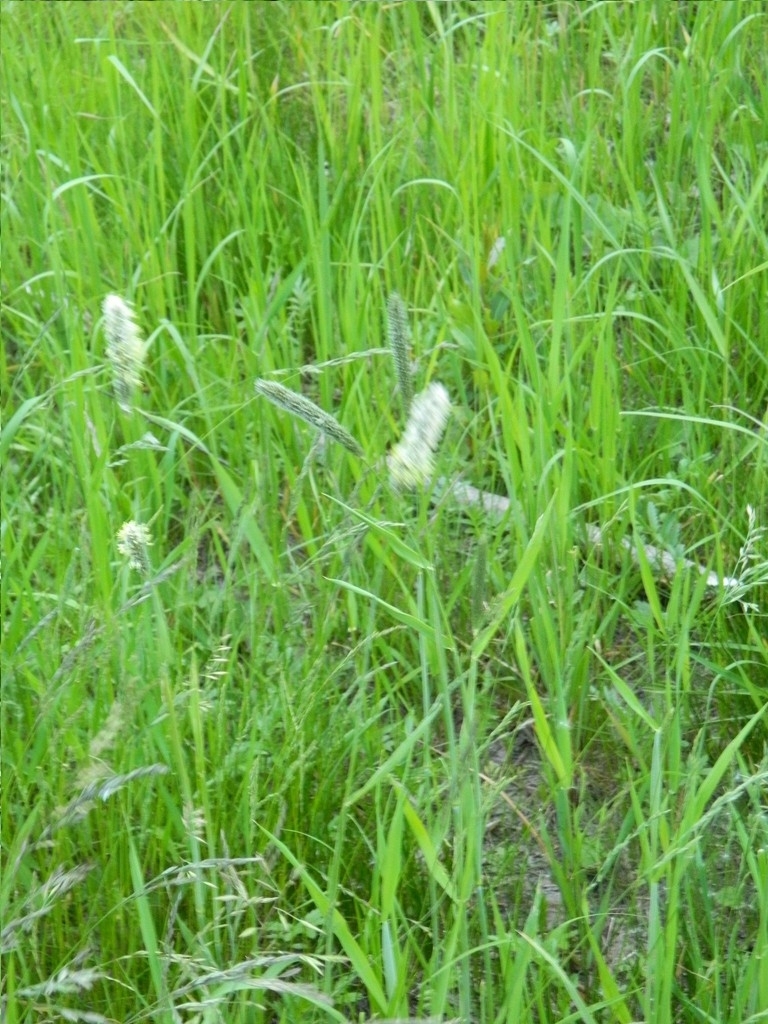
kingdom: Plantae
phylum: Tracheophyta
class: Liliopsida
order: Poales
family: Poaceae
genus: Alopecurus
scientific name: Alopecurus pratensis
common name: Meadow foxtail
